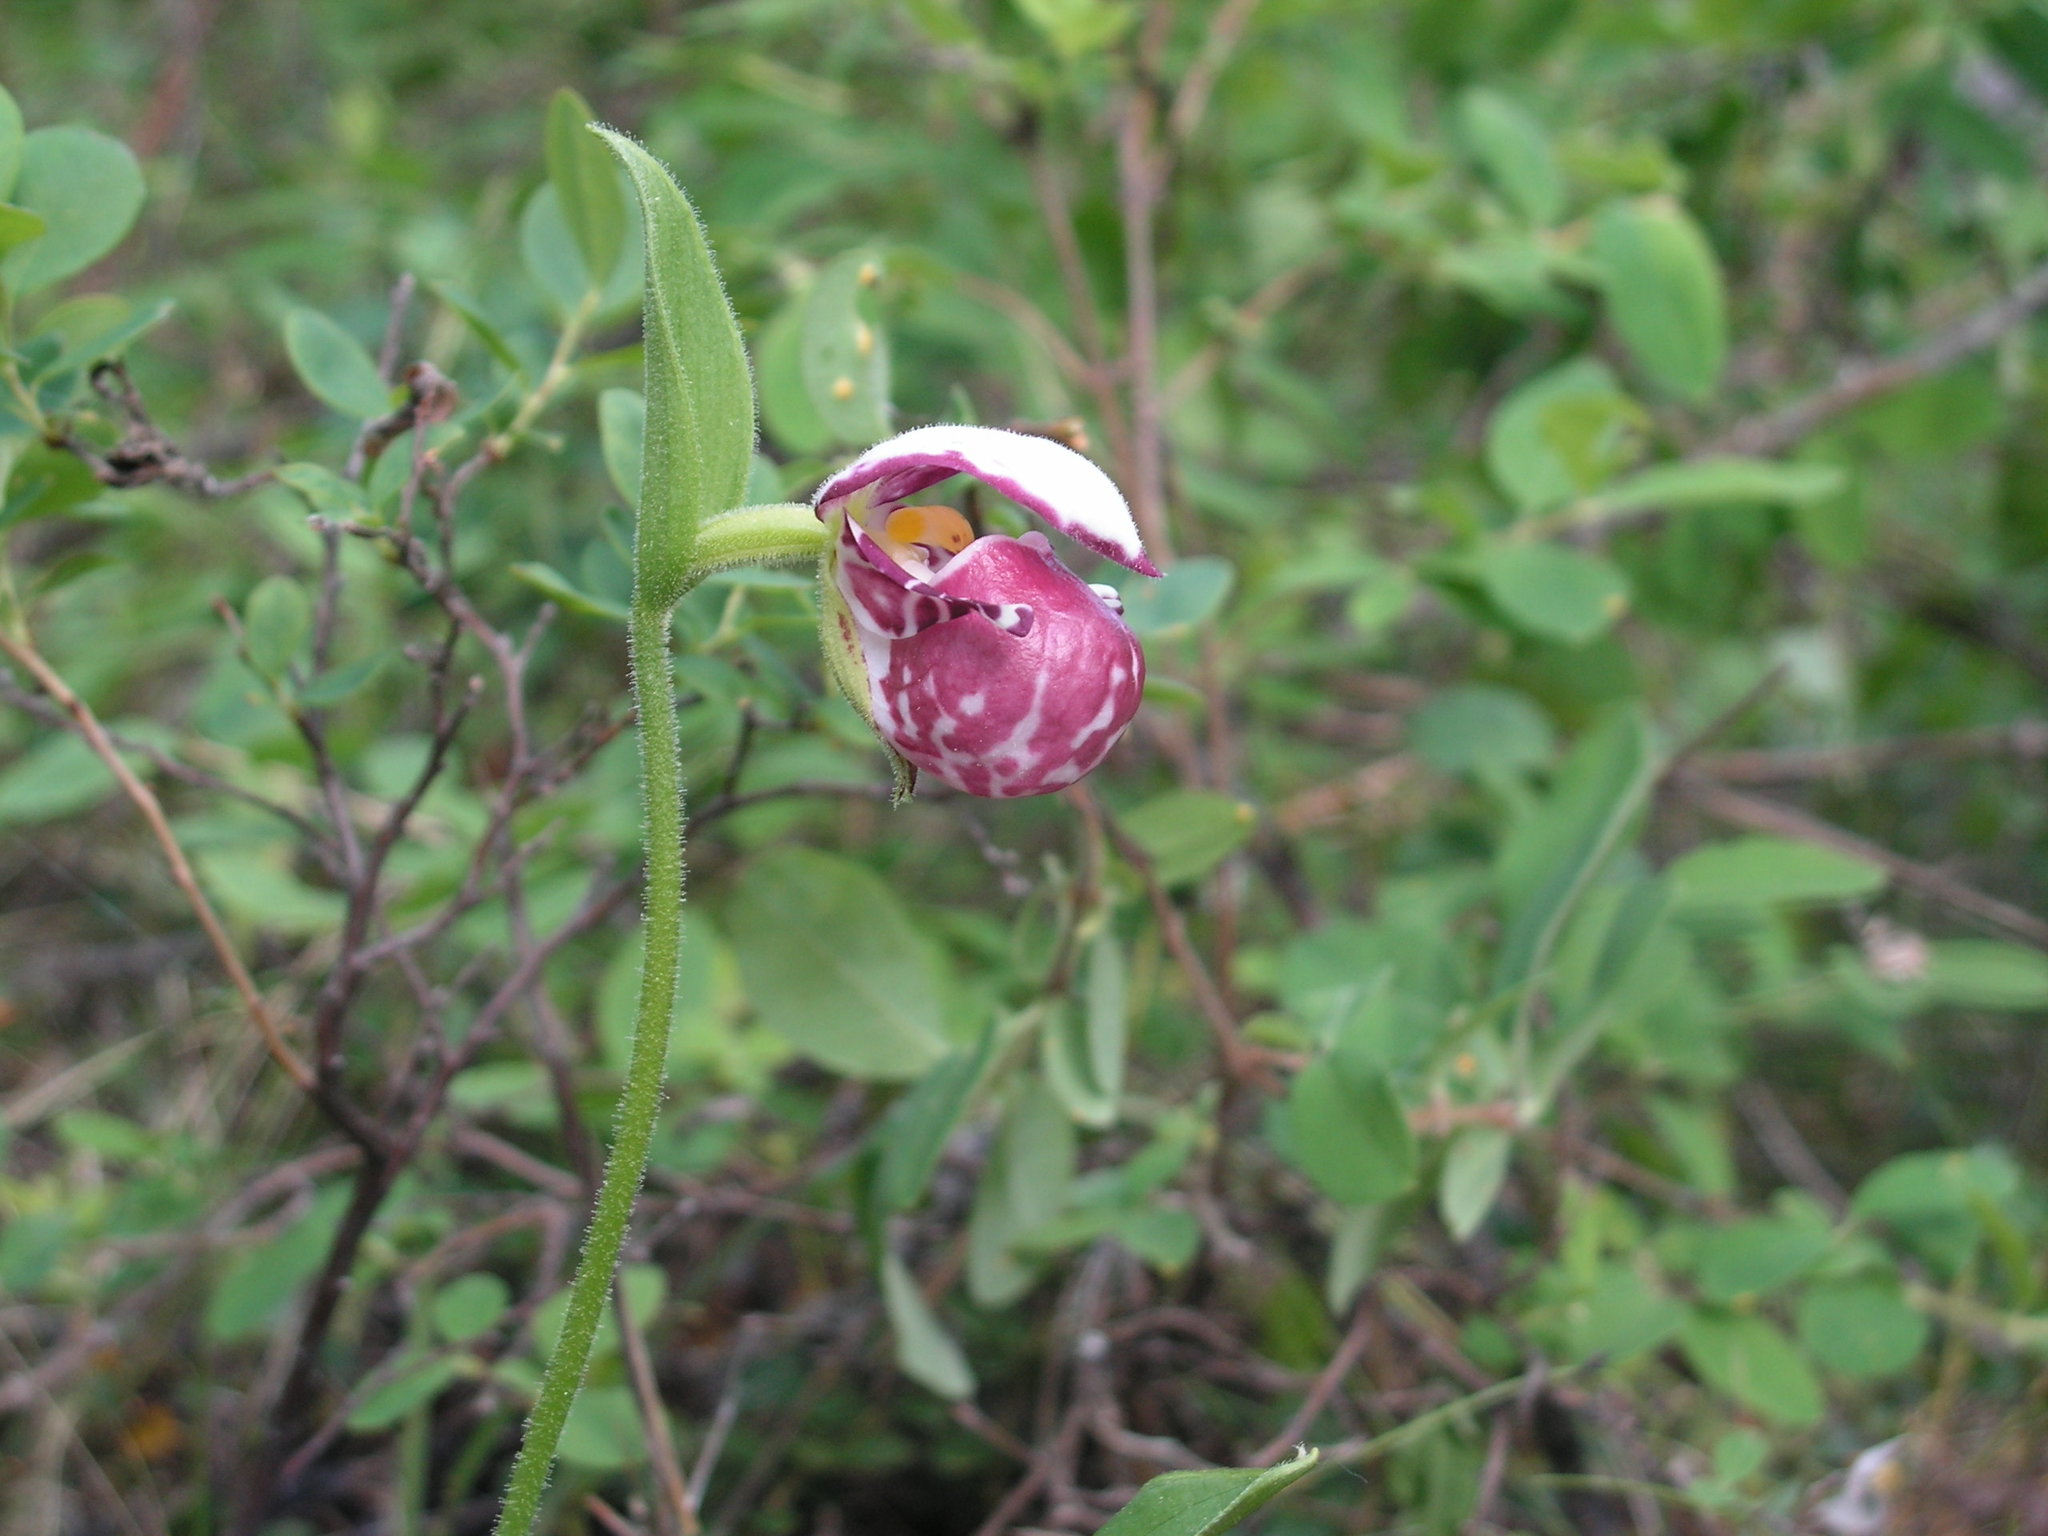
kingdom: Plantae
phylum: Tracheophyta
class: Liliopsida
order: Asparagales
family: Orchidaceae
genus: Cypripedium
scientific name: Cypripedium guttatum
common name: Pink lady slipper
